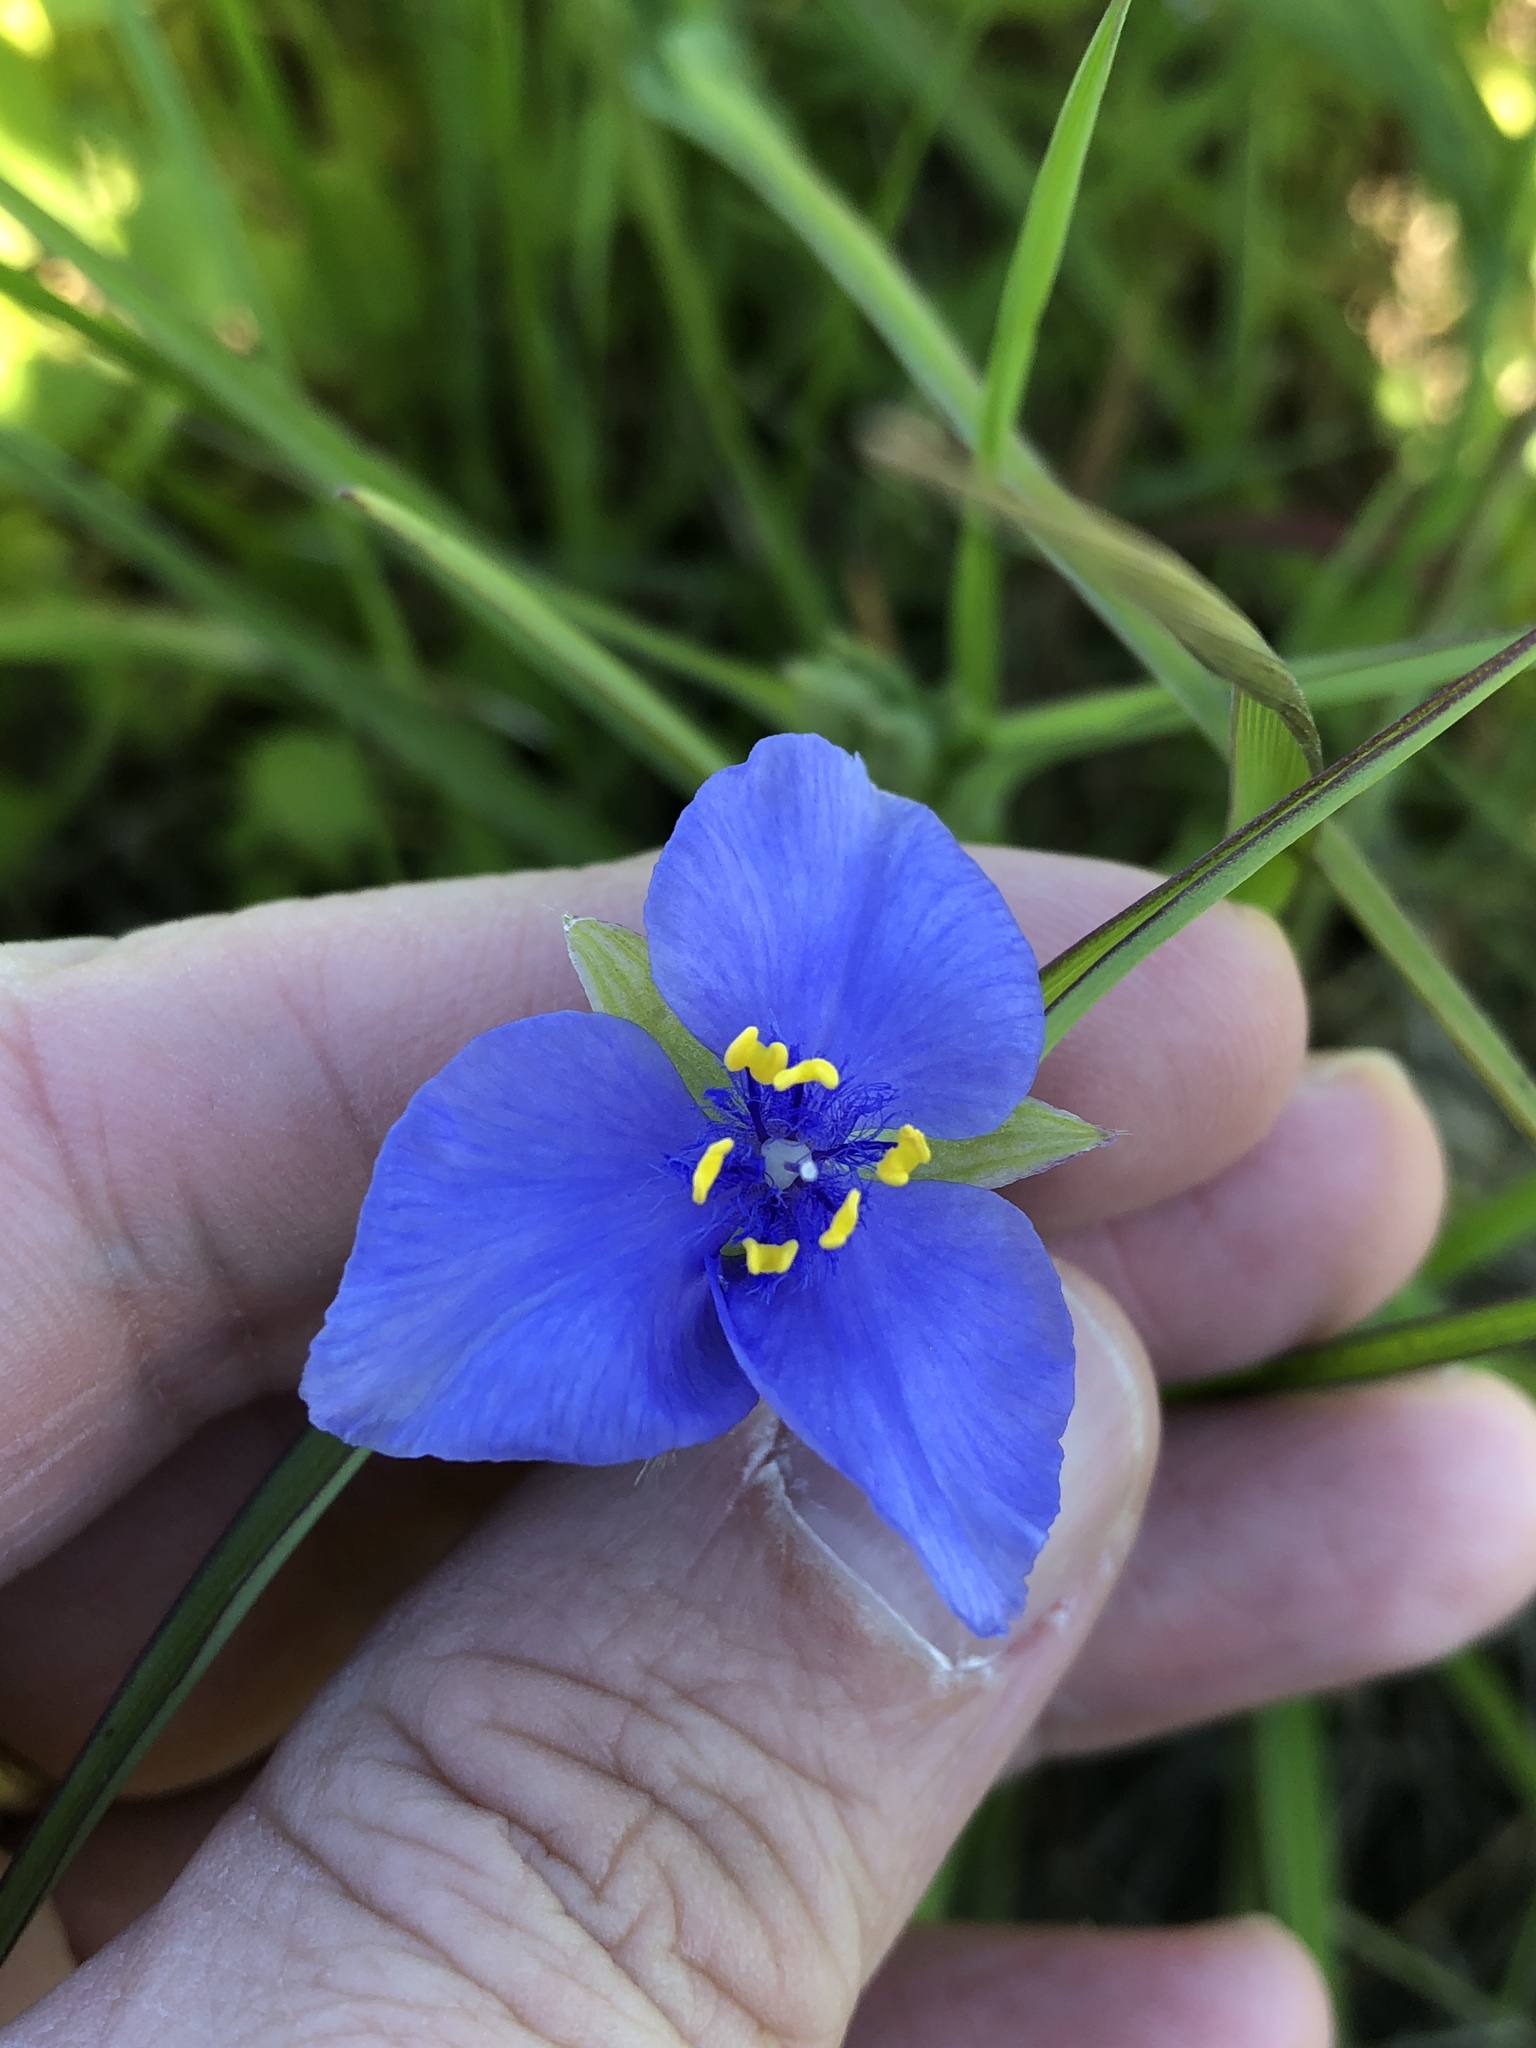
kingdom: Plantae
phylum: Tracheophyta
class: Liliopsida
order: Commelinales
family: Commelinaceae
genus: Tradescantia
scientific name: Tradescantia ohiensis
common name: Ohio spiderwort
